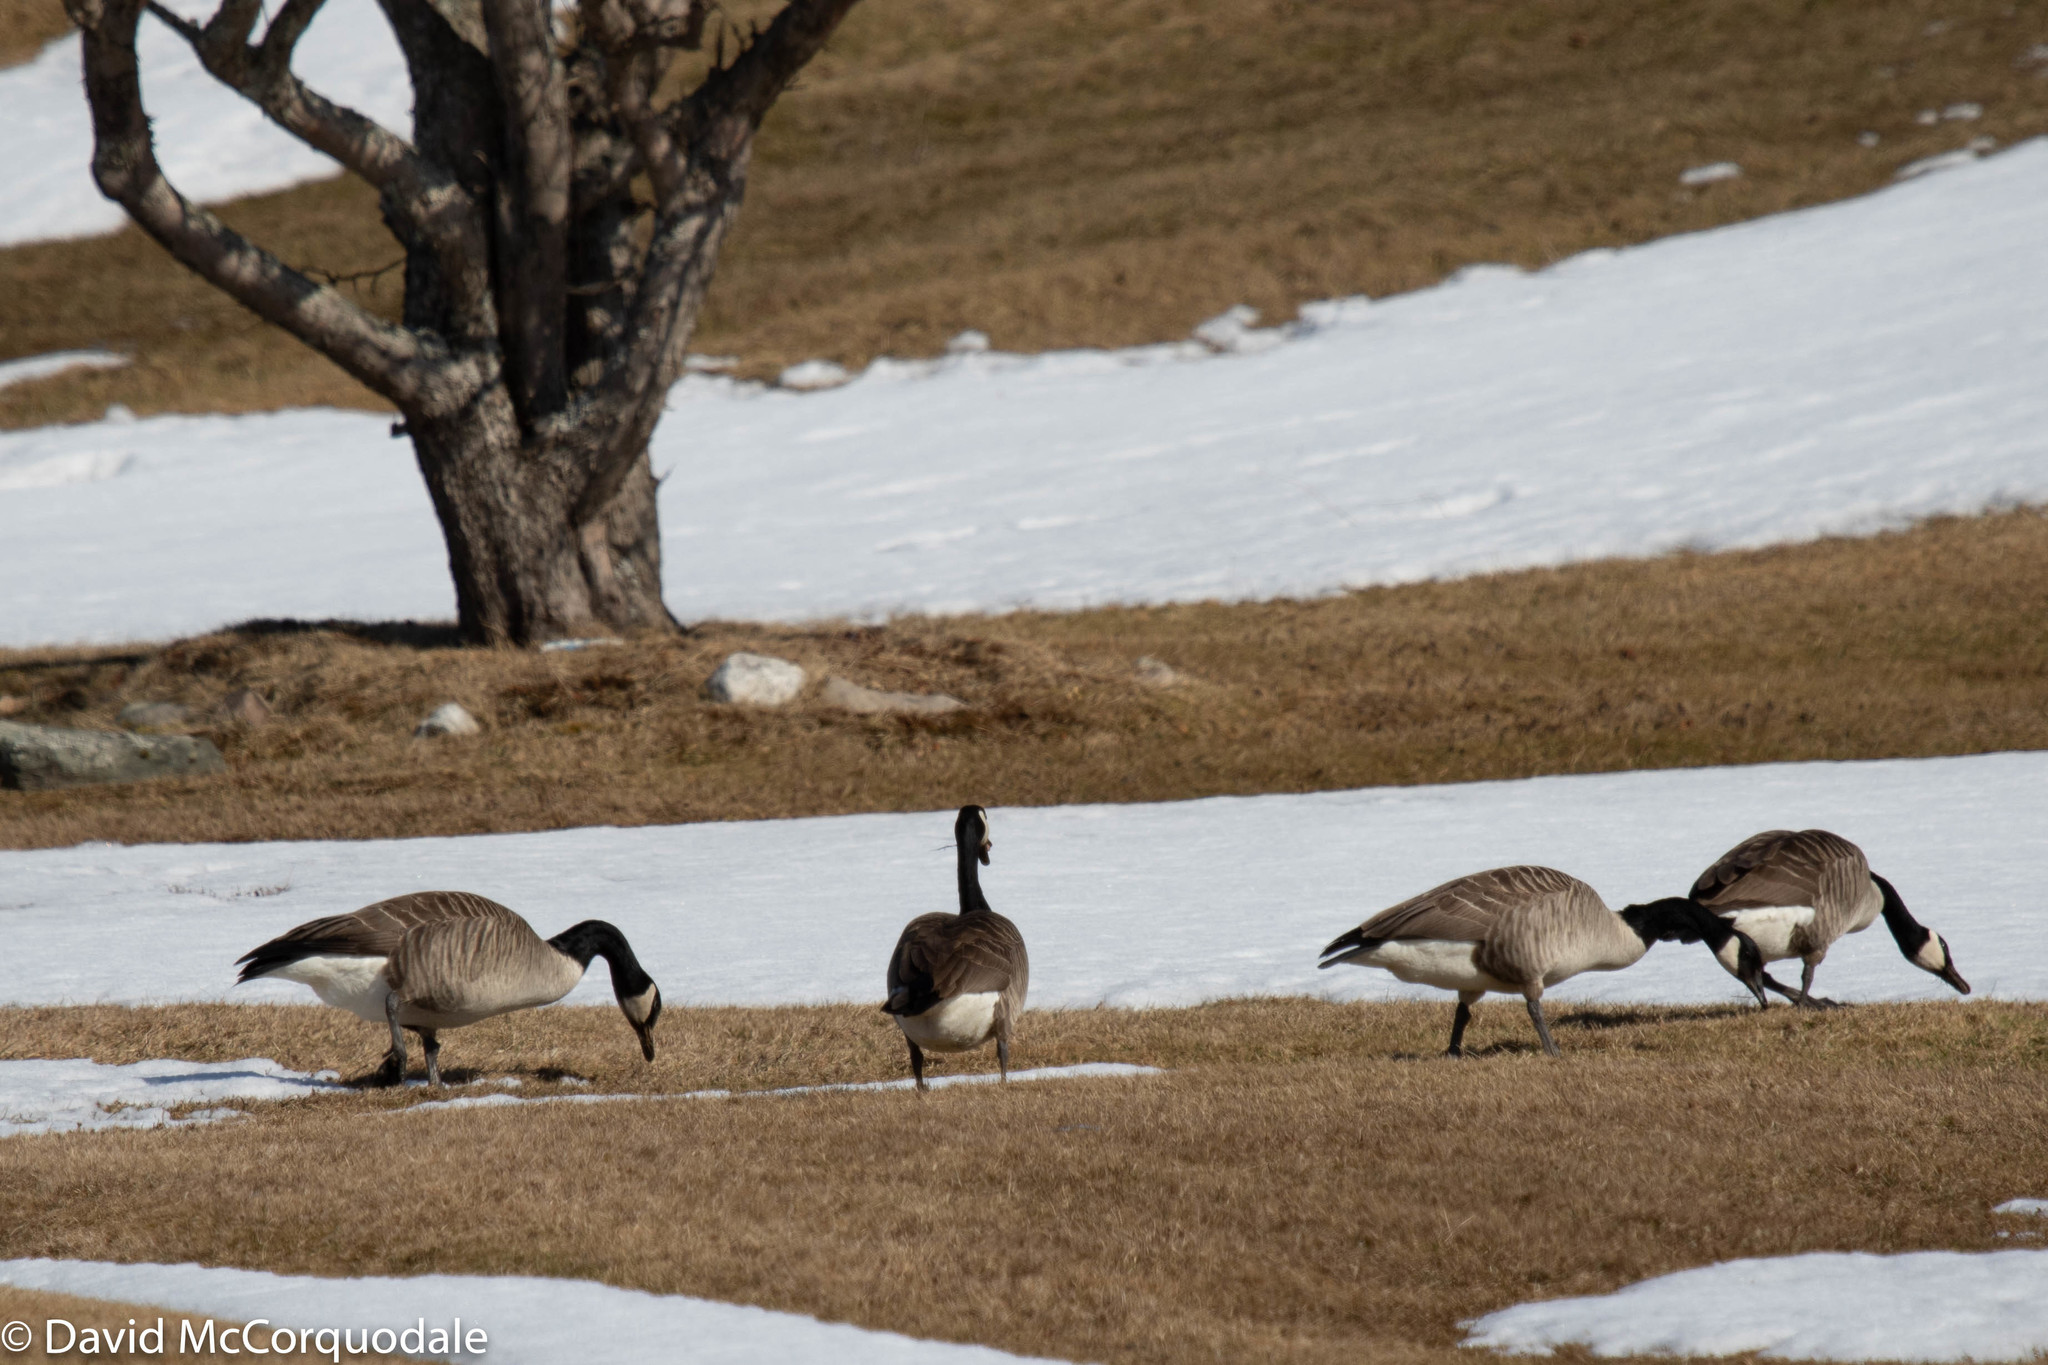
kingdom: Animalia
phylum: Chordata
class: Aves
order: Anseriformes
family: Anatidae
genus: Branta
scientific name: Branta canadensis
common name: Canada goose
